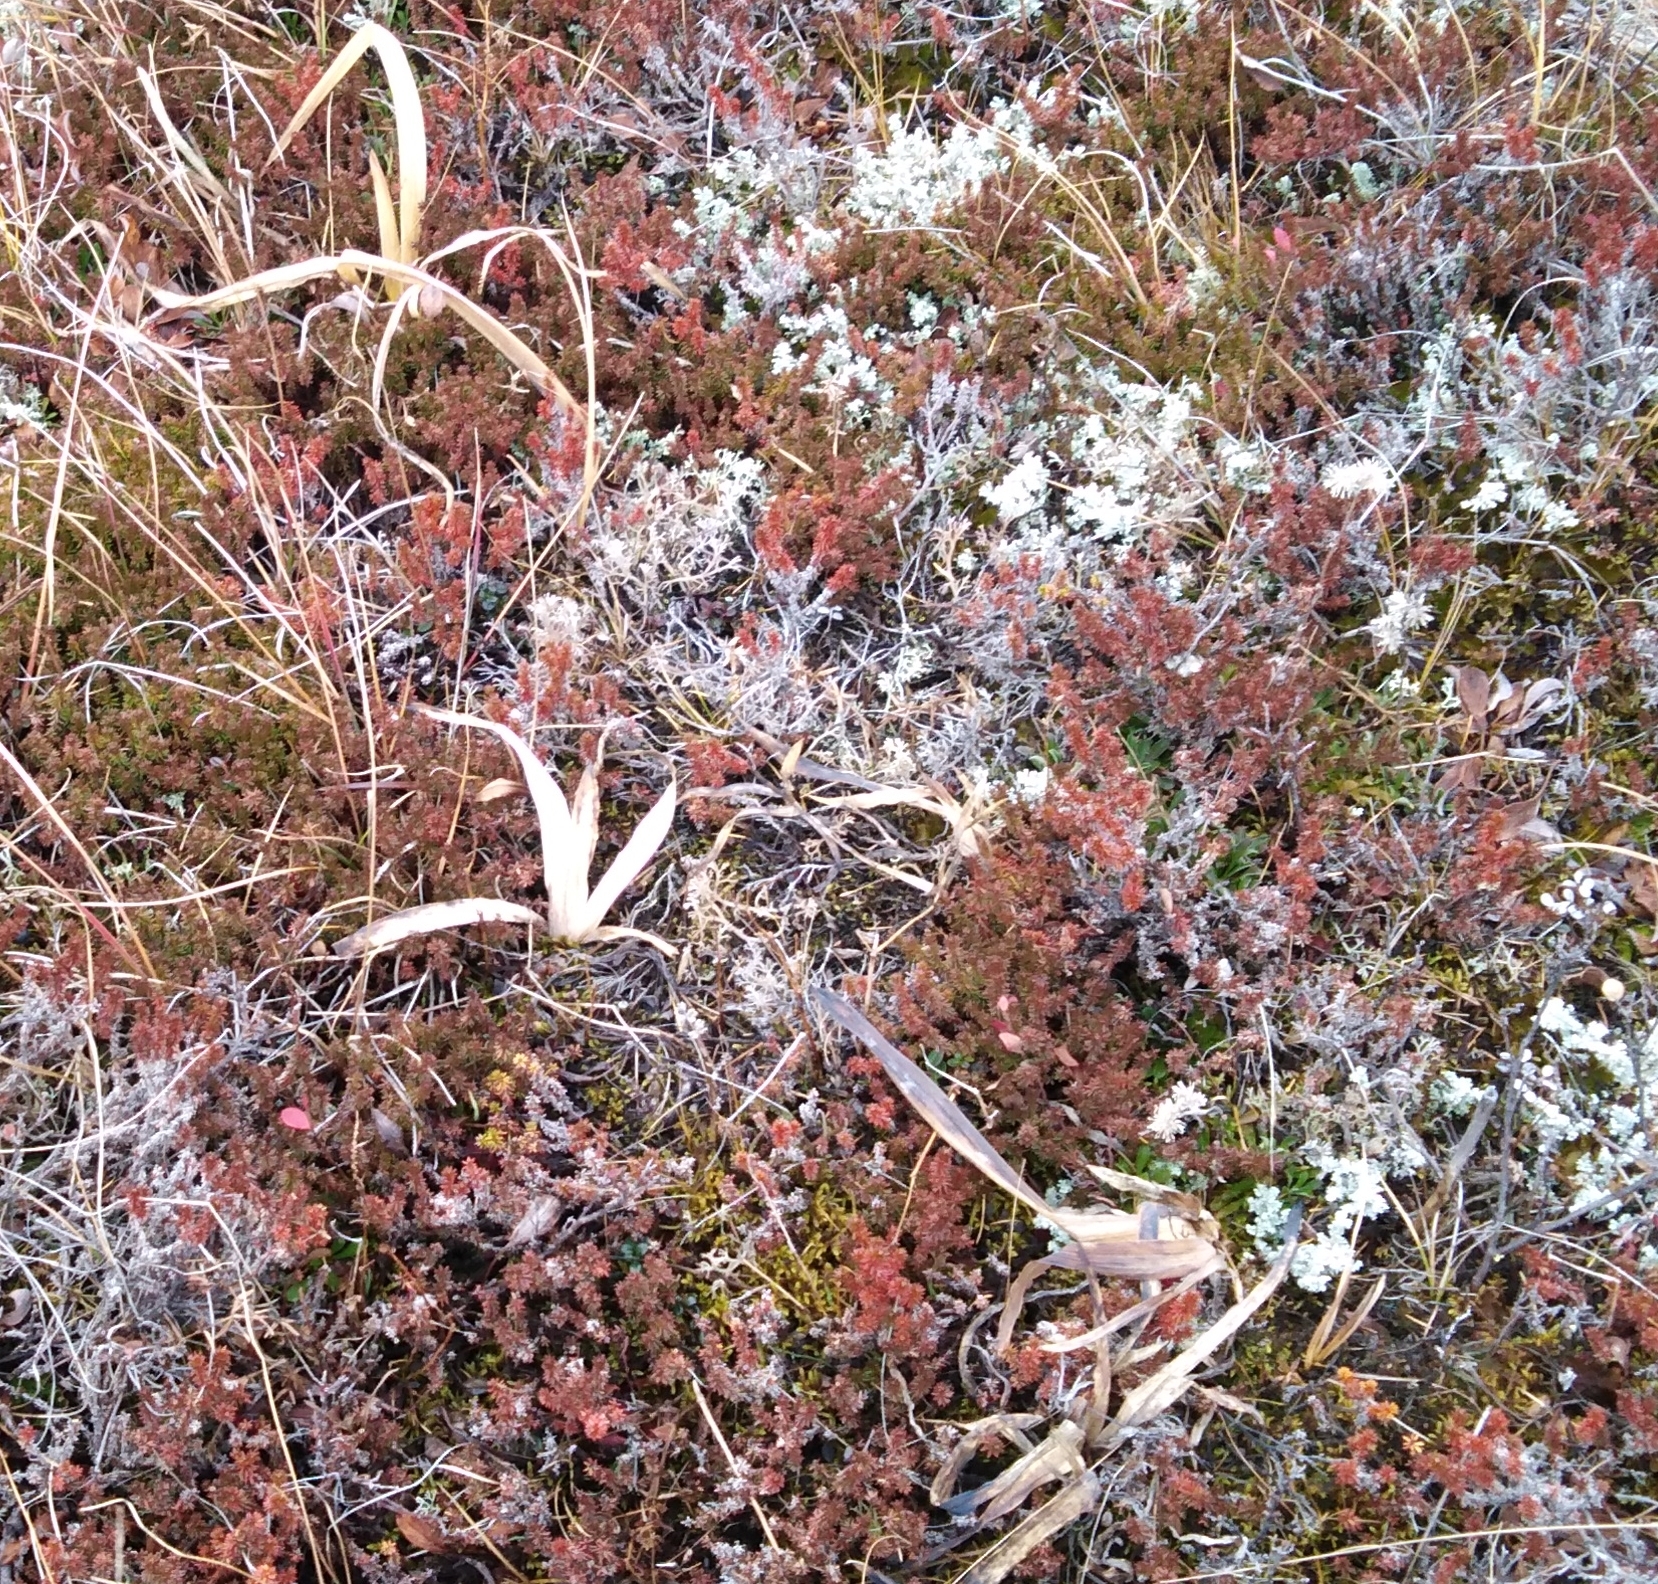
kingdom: Plantae
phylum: Tracheophyta
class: Liliopsida
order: Asparagales
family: Iridaceae
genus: Iris
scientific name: Iris setosa
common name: Arctic blue flag
